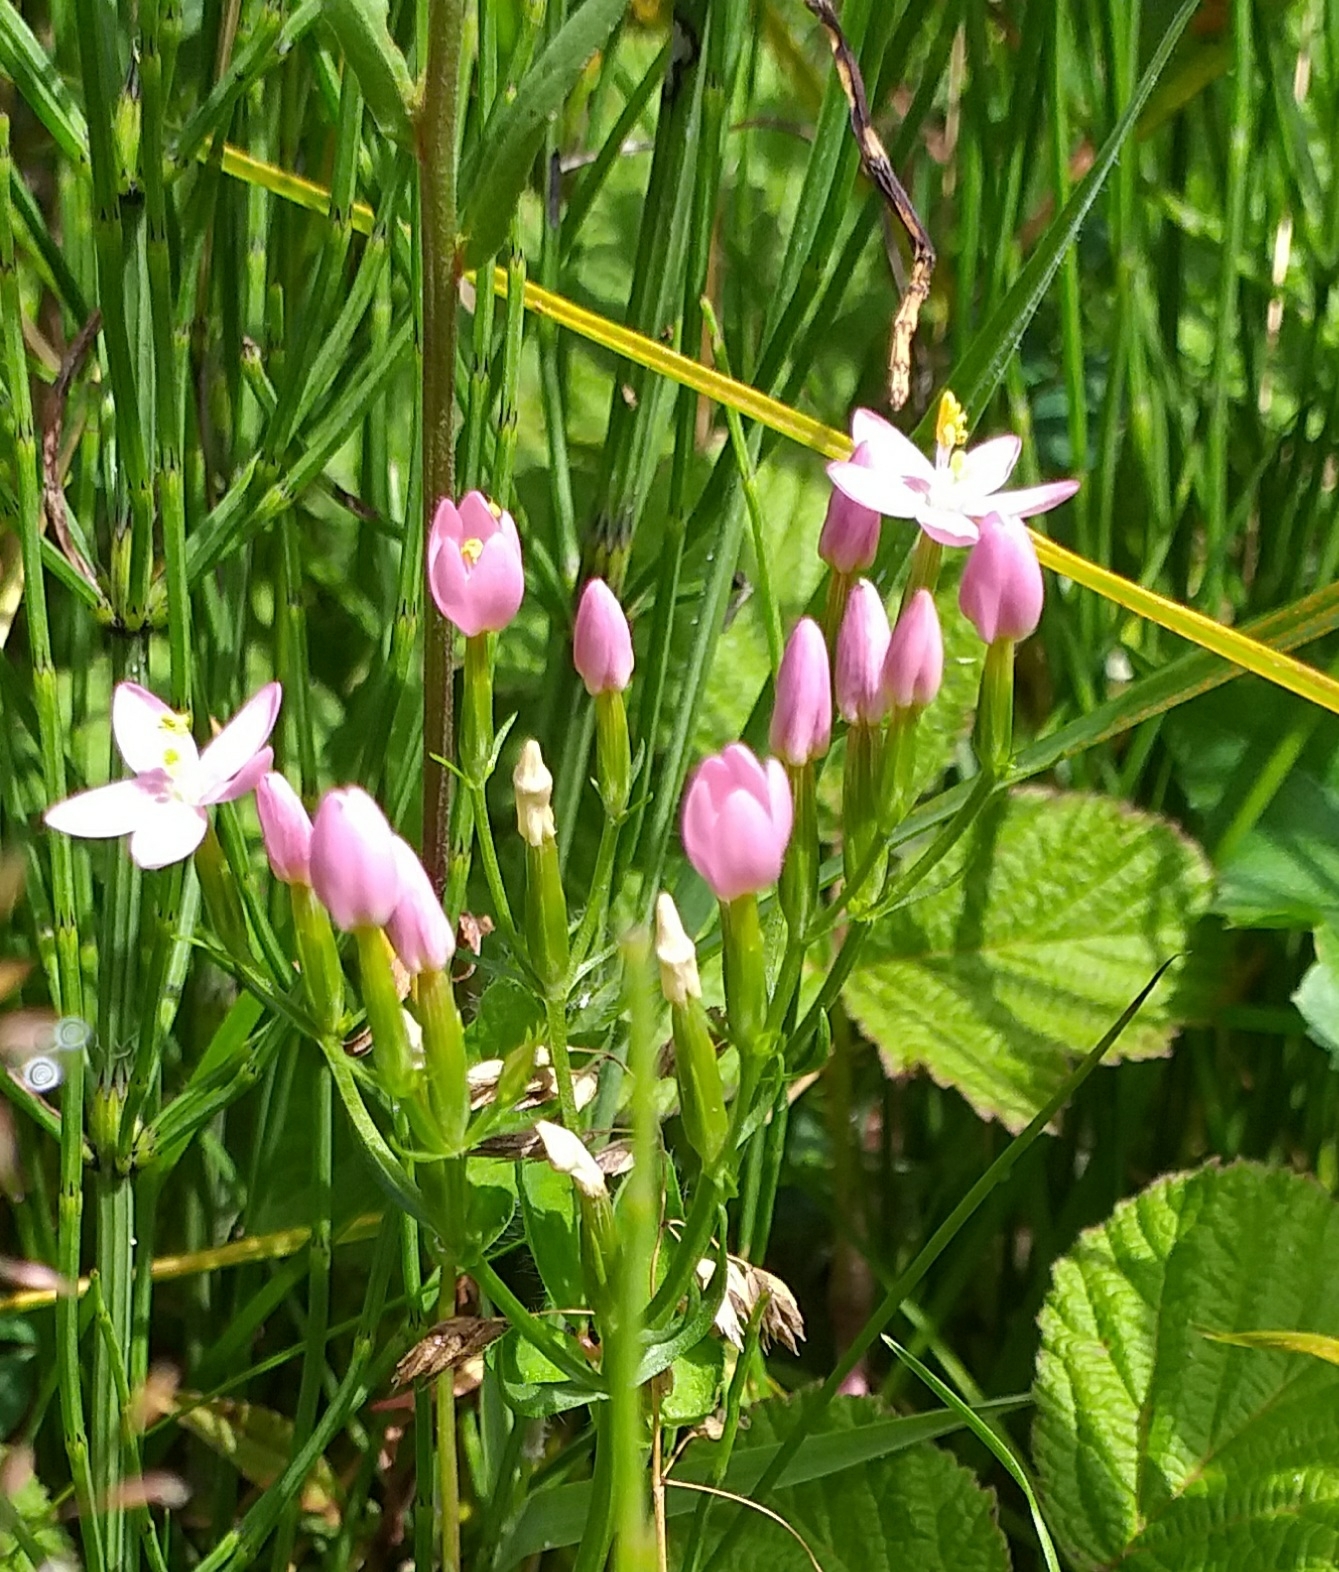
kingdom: Plantae
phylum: Tracheophyta
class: Magnoliopsida
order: Gentianales
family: Gentianaceae
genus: Centaurium
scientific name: Centaurium erythraea
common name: Common centaury
